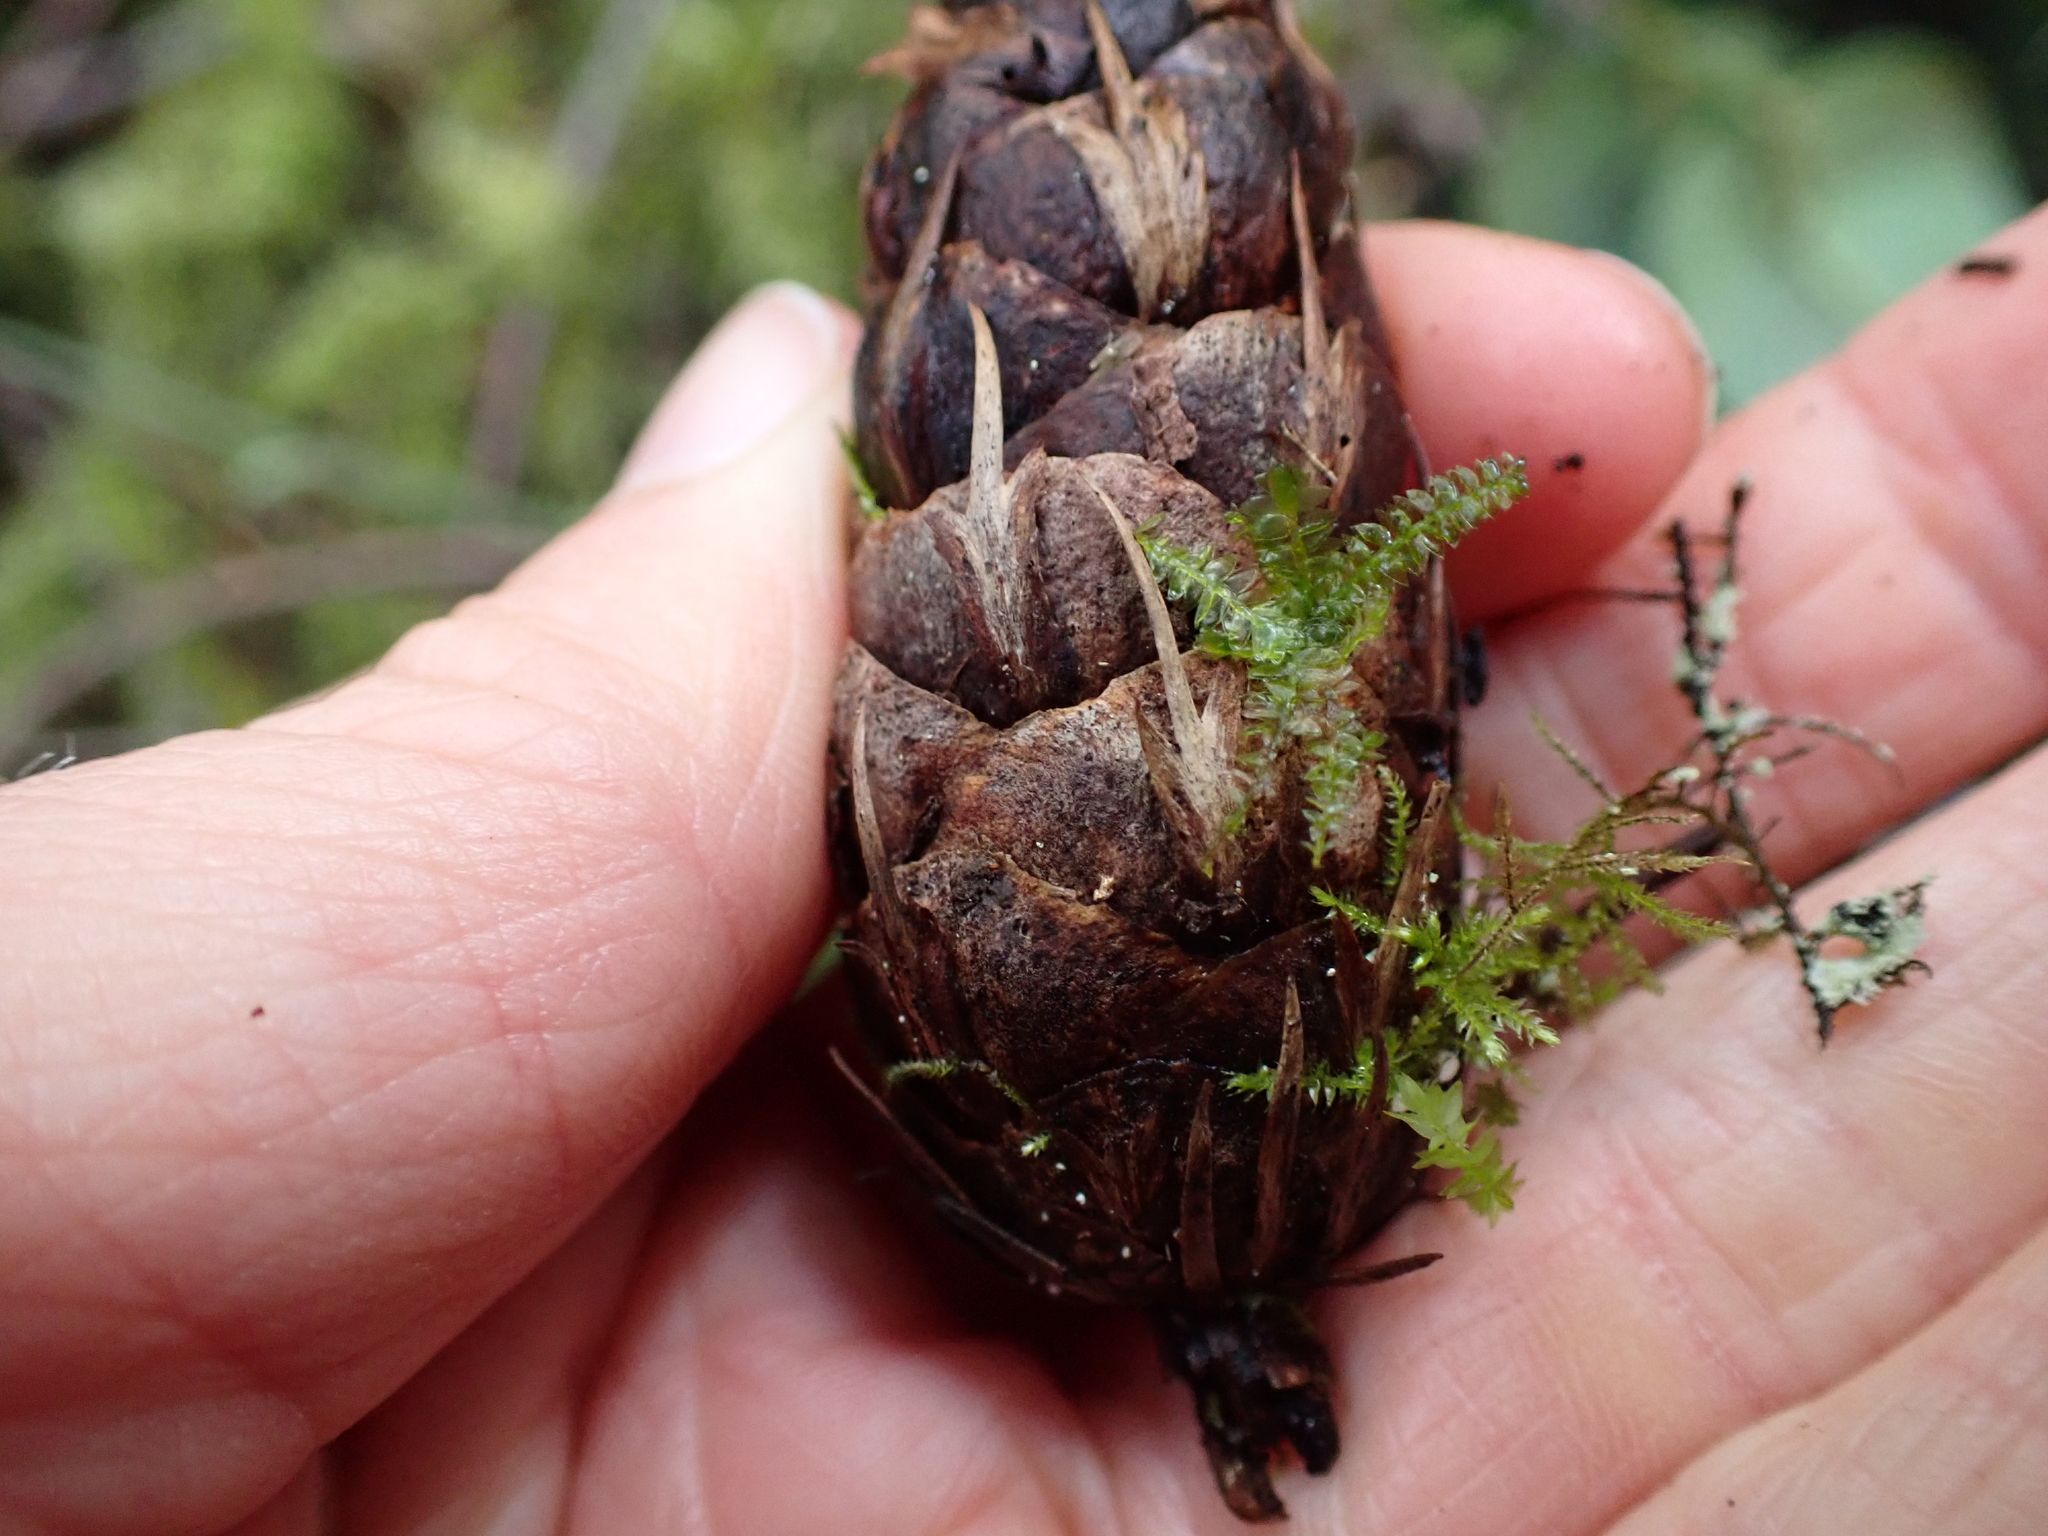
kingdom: Plantae
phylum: Tracheophyta
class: Pinopsida
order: Pinales
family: Pinaceae
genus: Pseudotsuga
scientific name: Pseudotsuga menziesii
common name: Douglas fir
